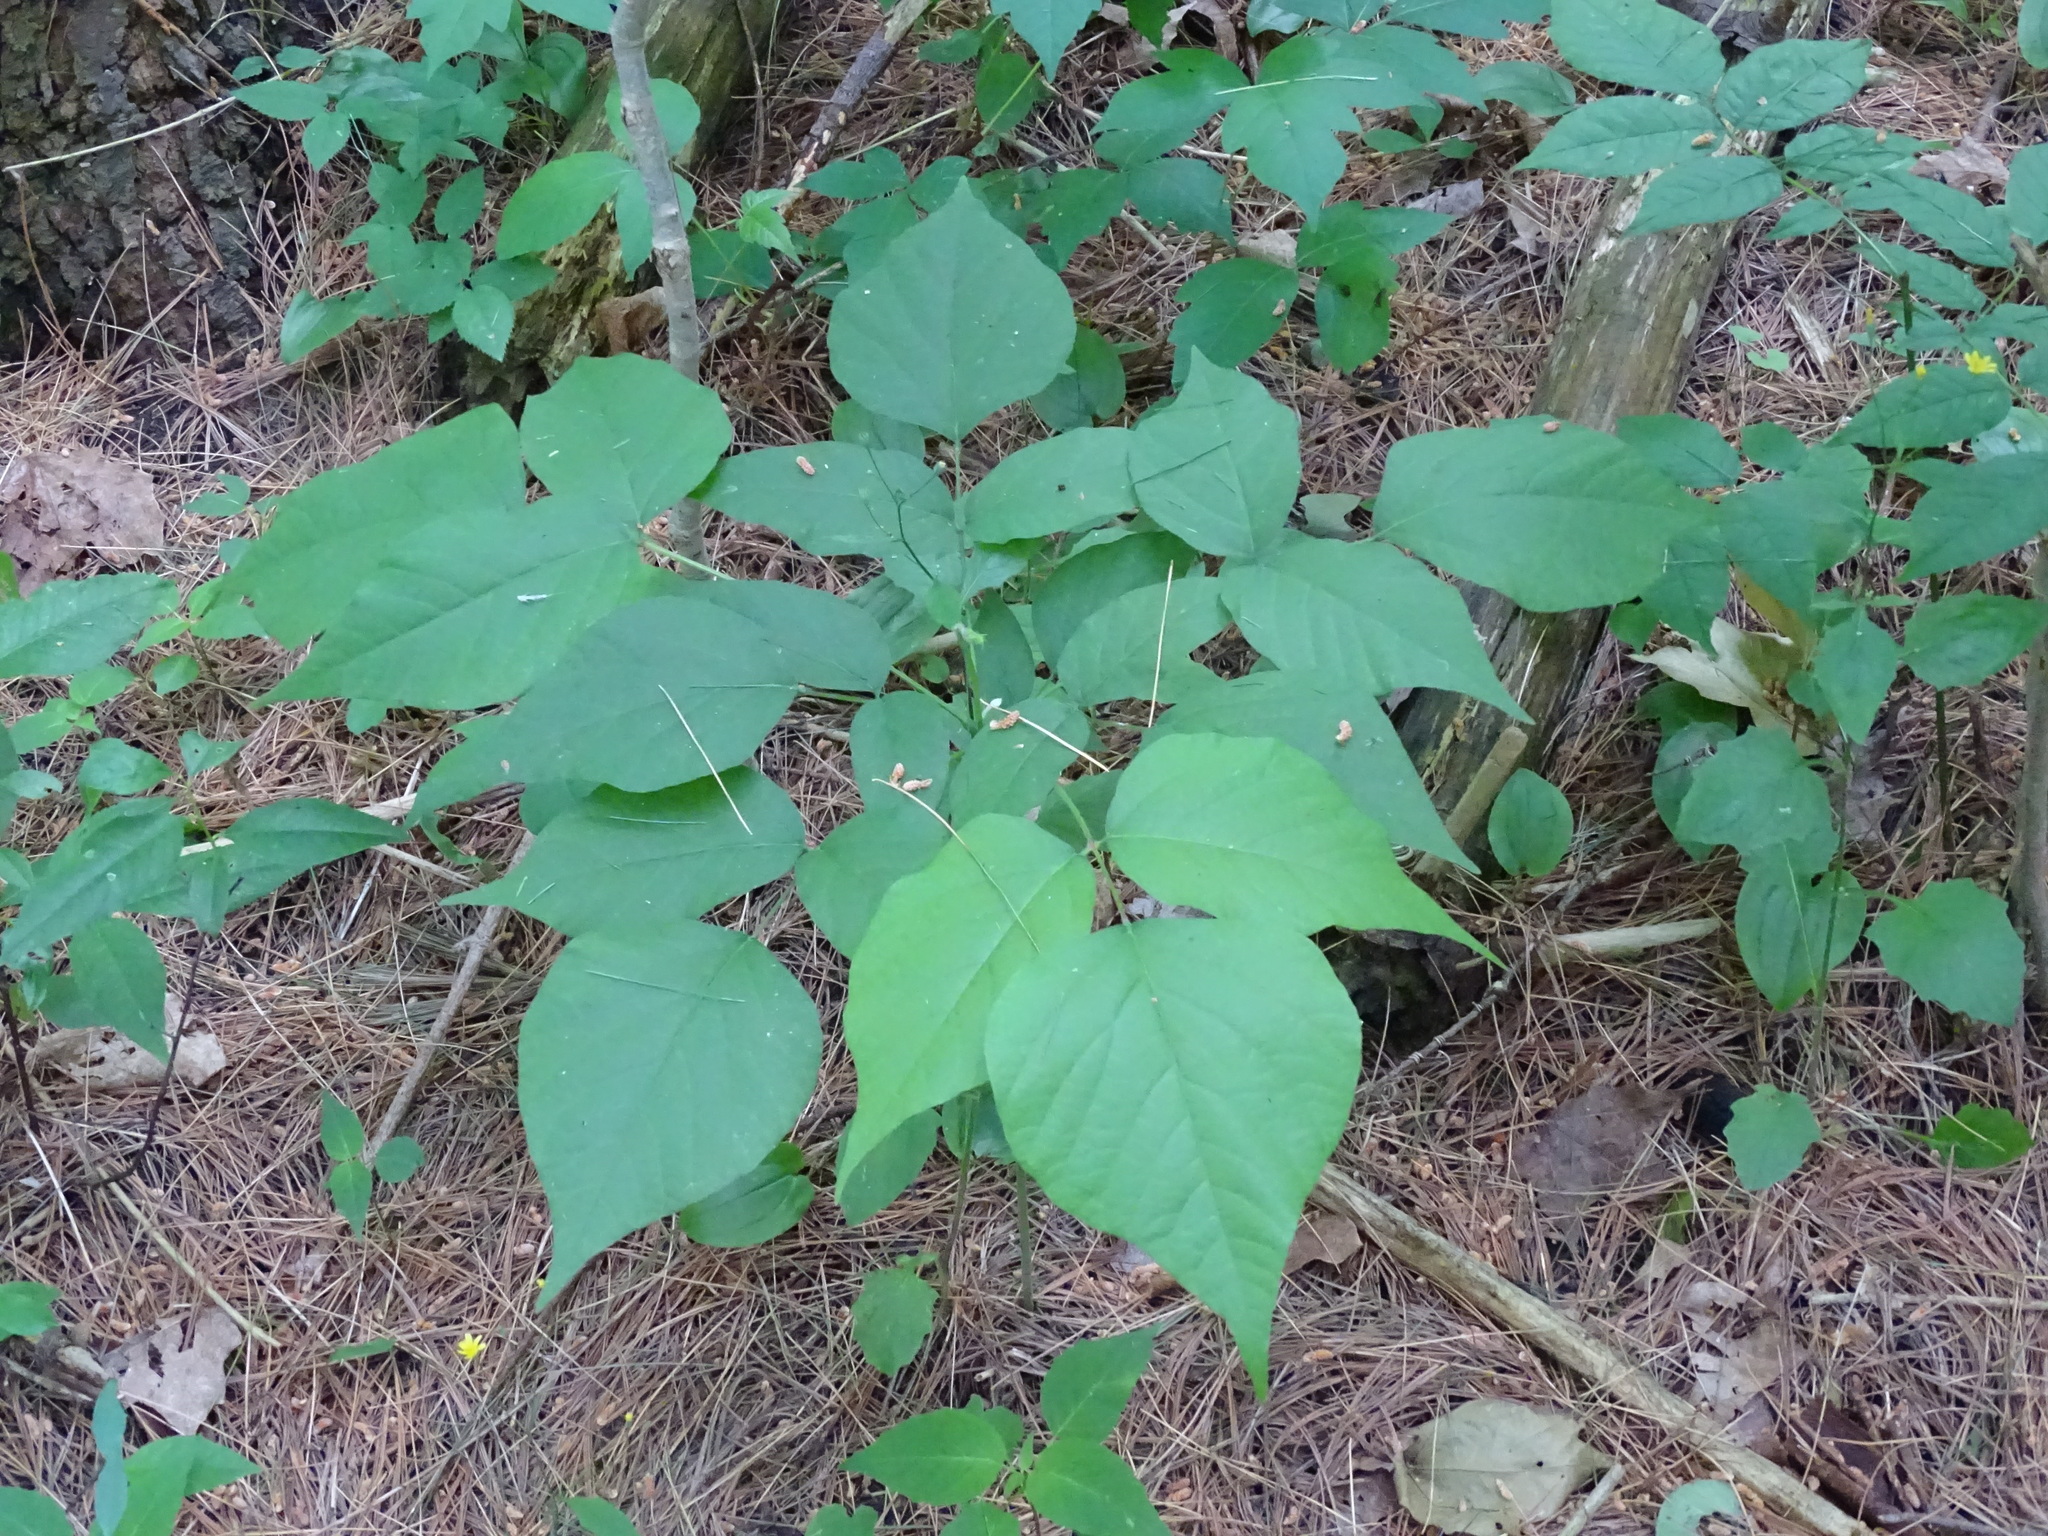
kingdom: Plantae
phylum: Tracheophyta
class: Magnoliopsida
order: Fabales
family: Fabaceae
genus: Hylodesmum
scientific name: Hylodesmum glutinosum
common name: Clustered-leaved tick-trefoil
